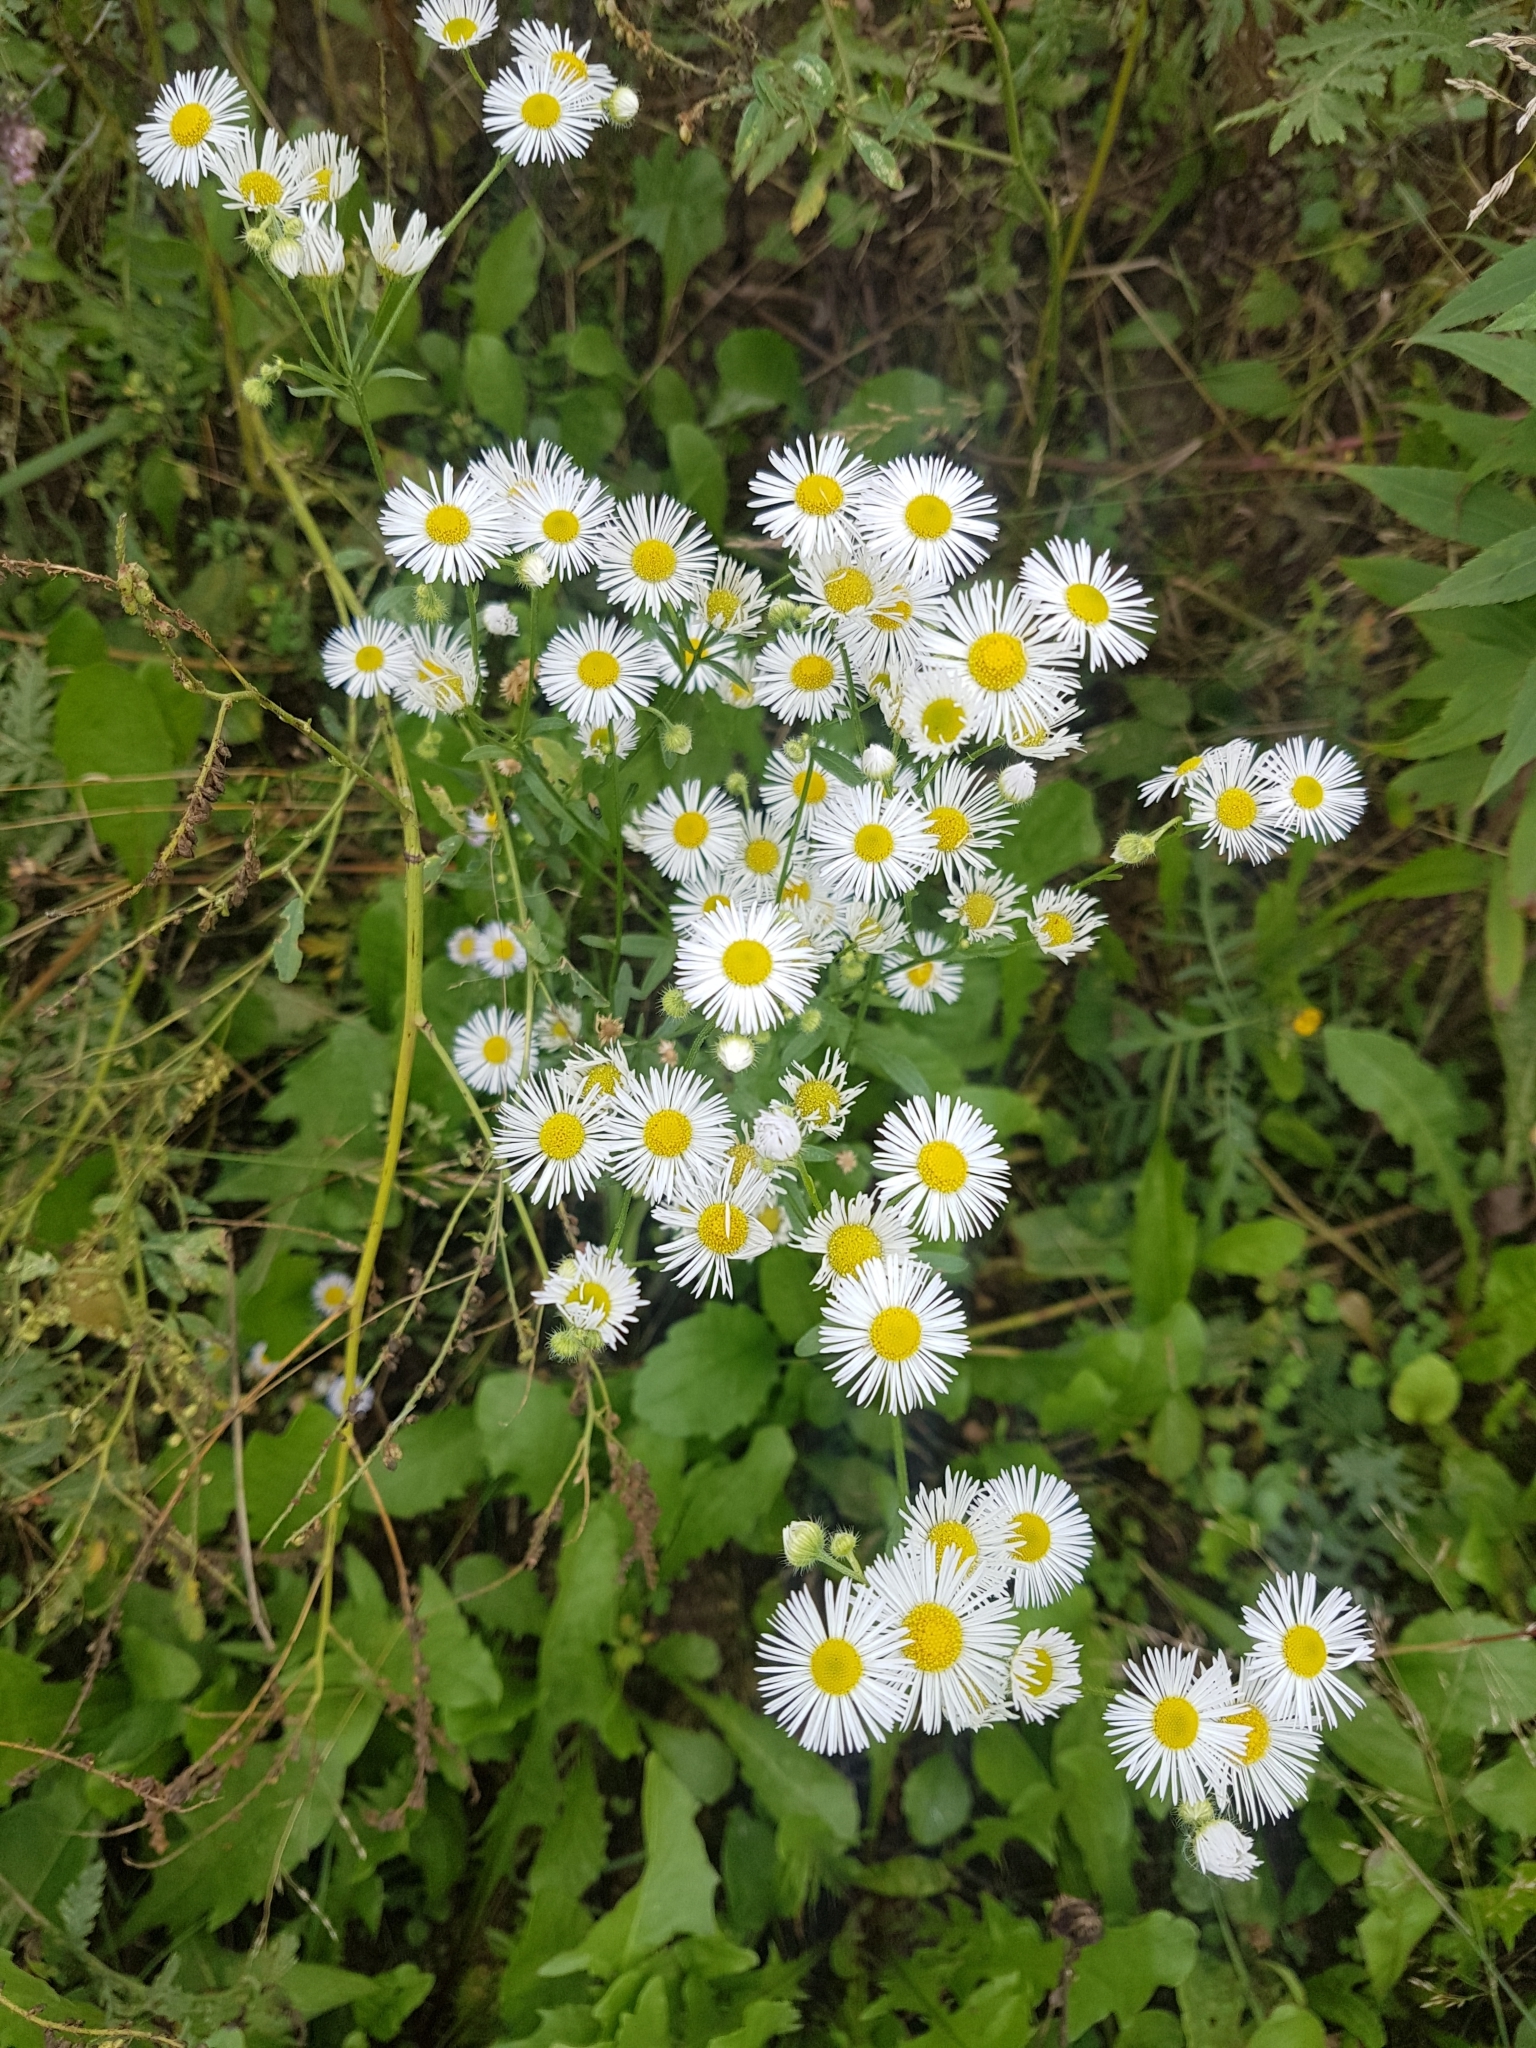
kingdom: Plantae
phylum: Tracheophyta
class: Magnoliopsida
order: Asterales
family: Asteraceae
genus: Erigeron
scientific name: Erigeron annuus
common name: Tall fleabane
